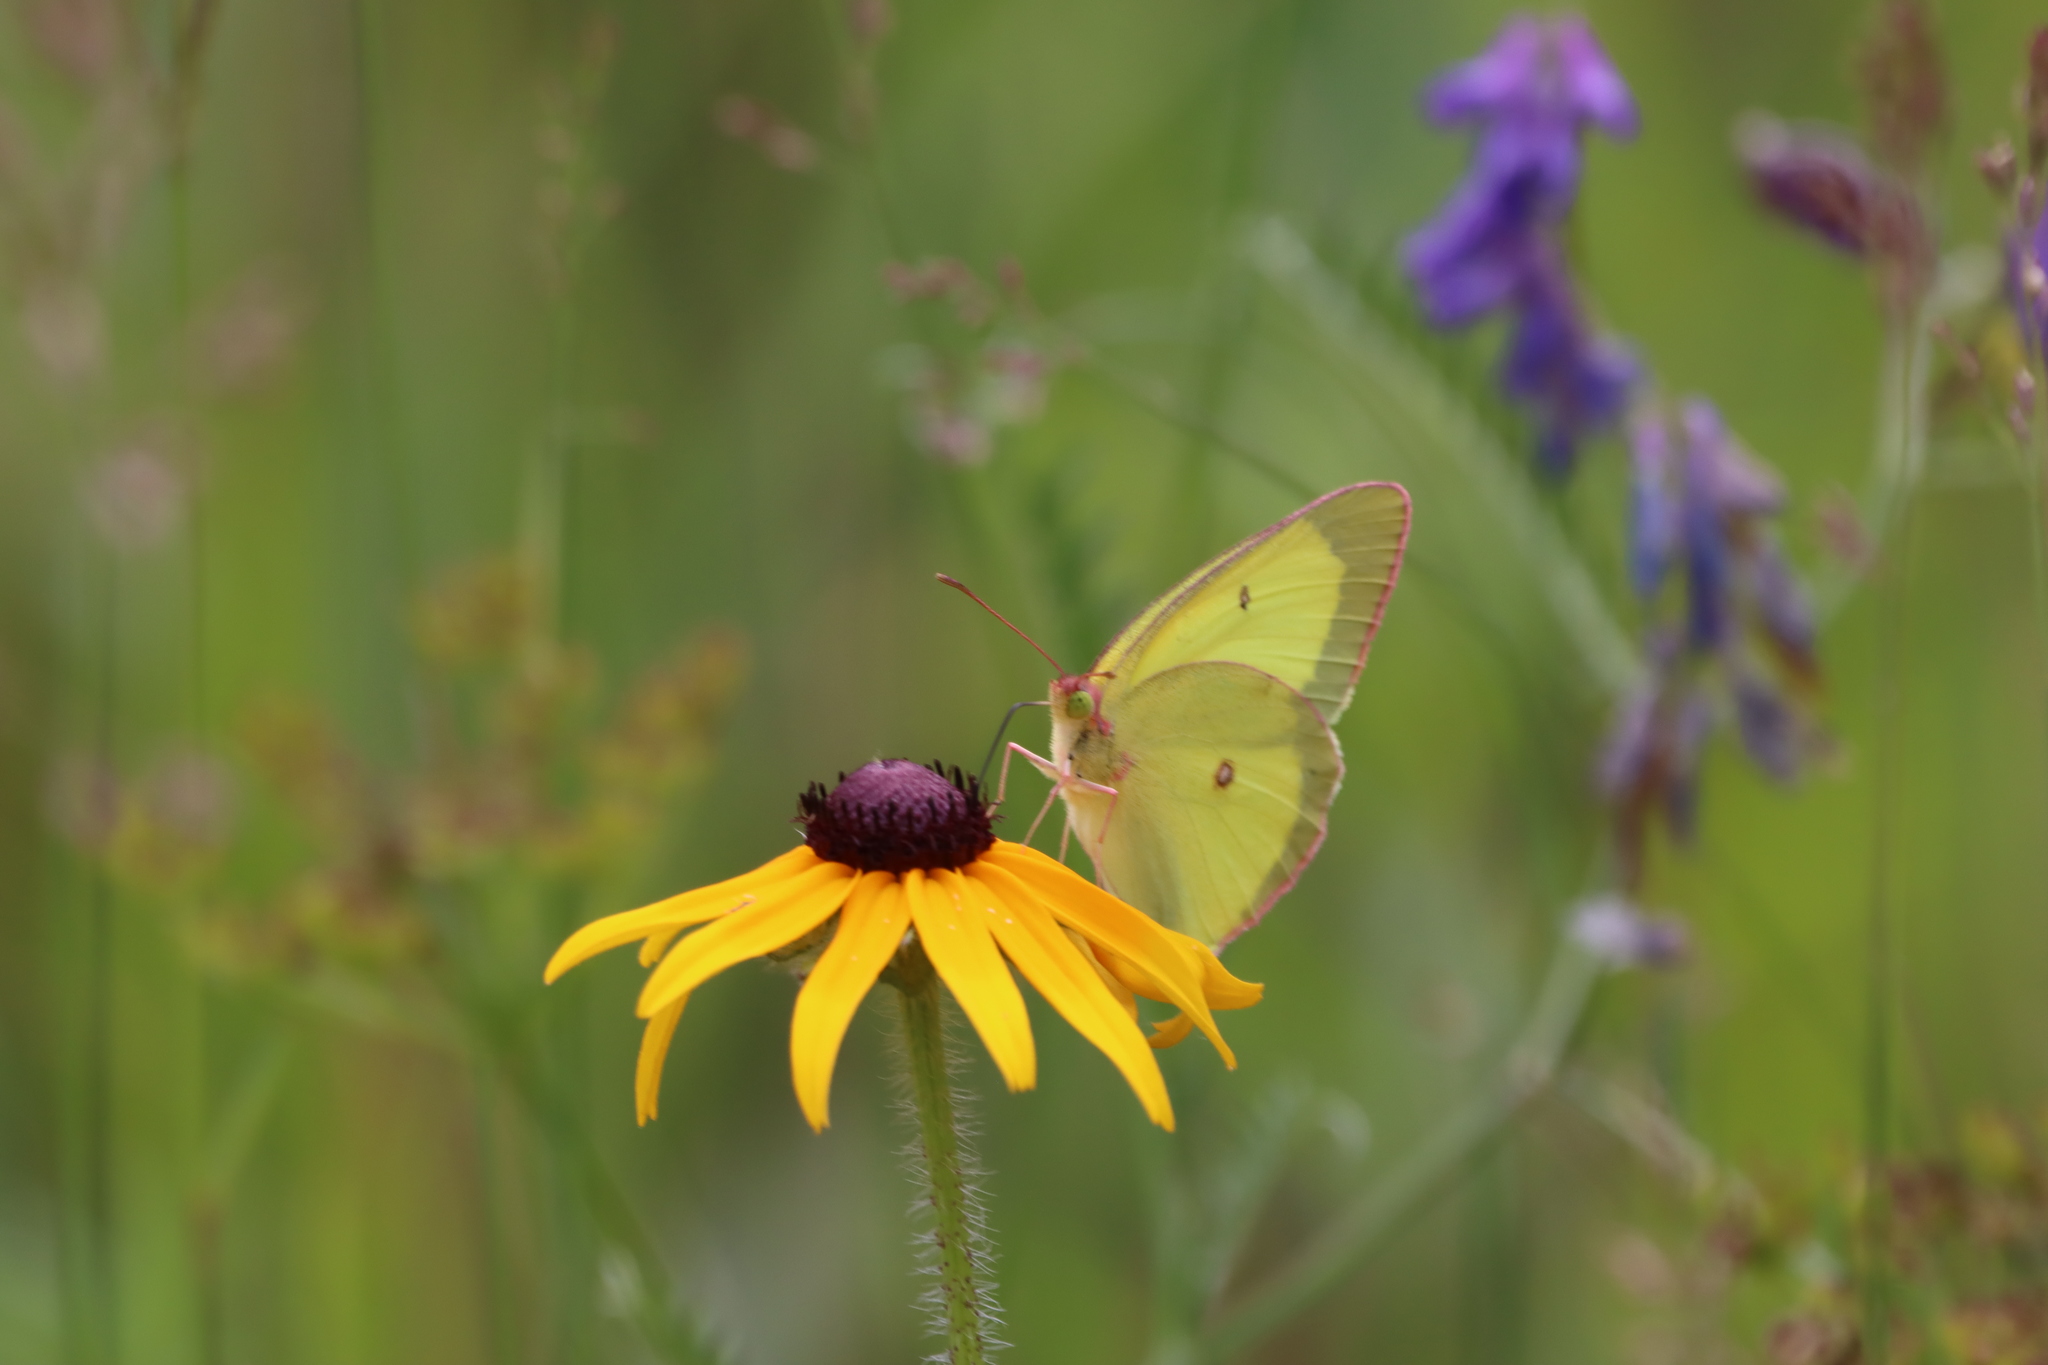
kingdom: Plantae
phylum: Tracheophyta
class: Magnoliopsida
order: Asterales
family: Asteraceae
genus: Rudbeckia
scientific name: Rudbeckia hirta
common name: Black-eyed-susan
